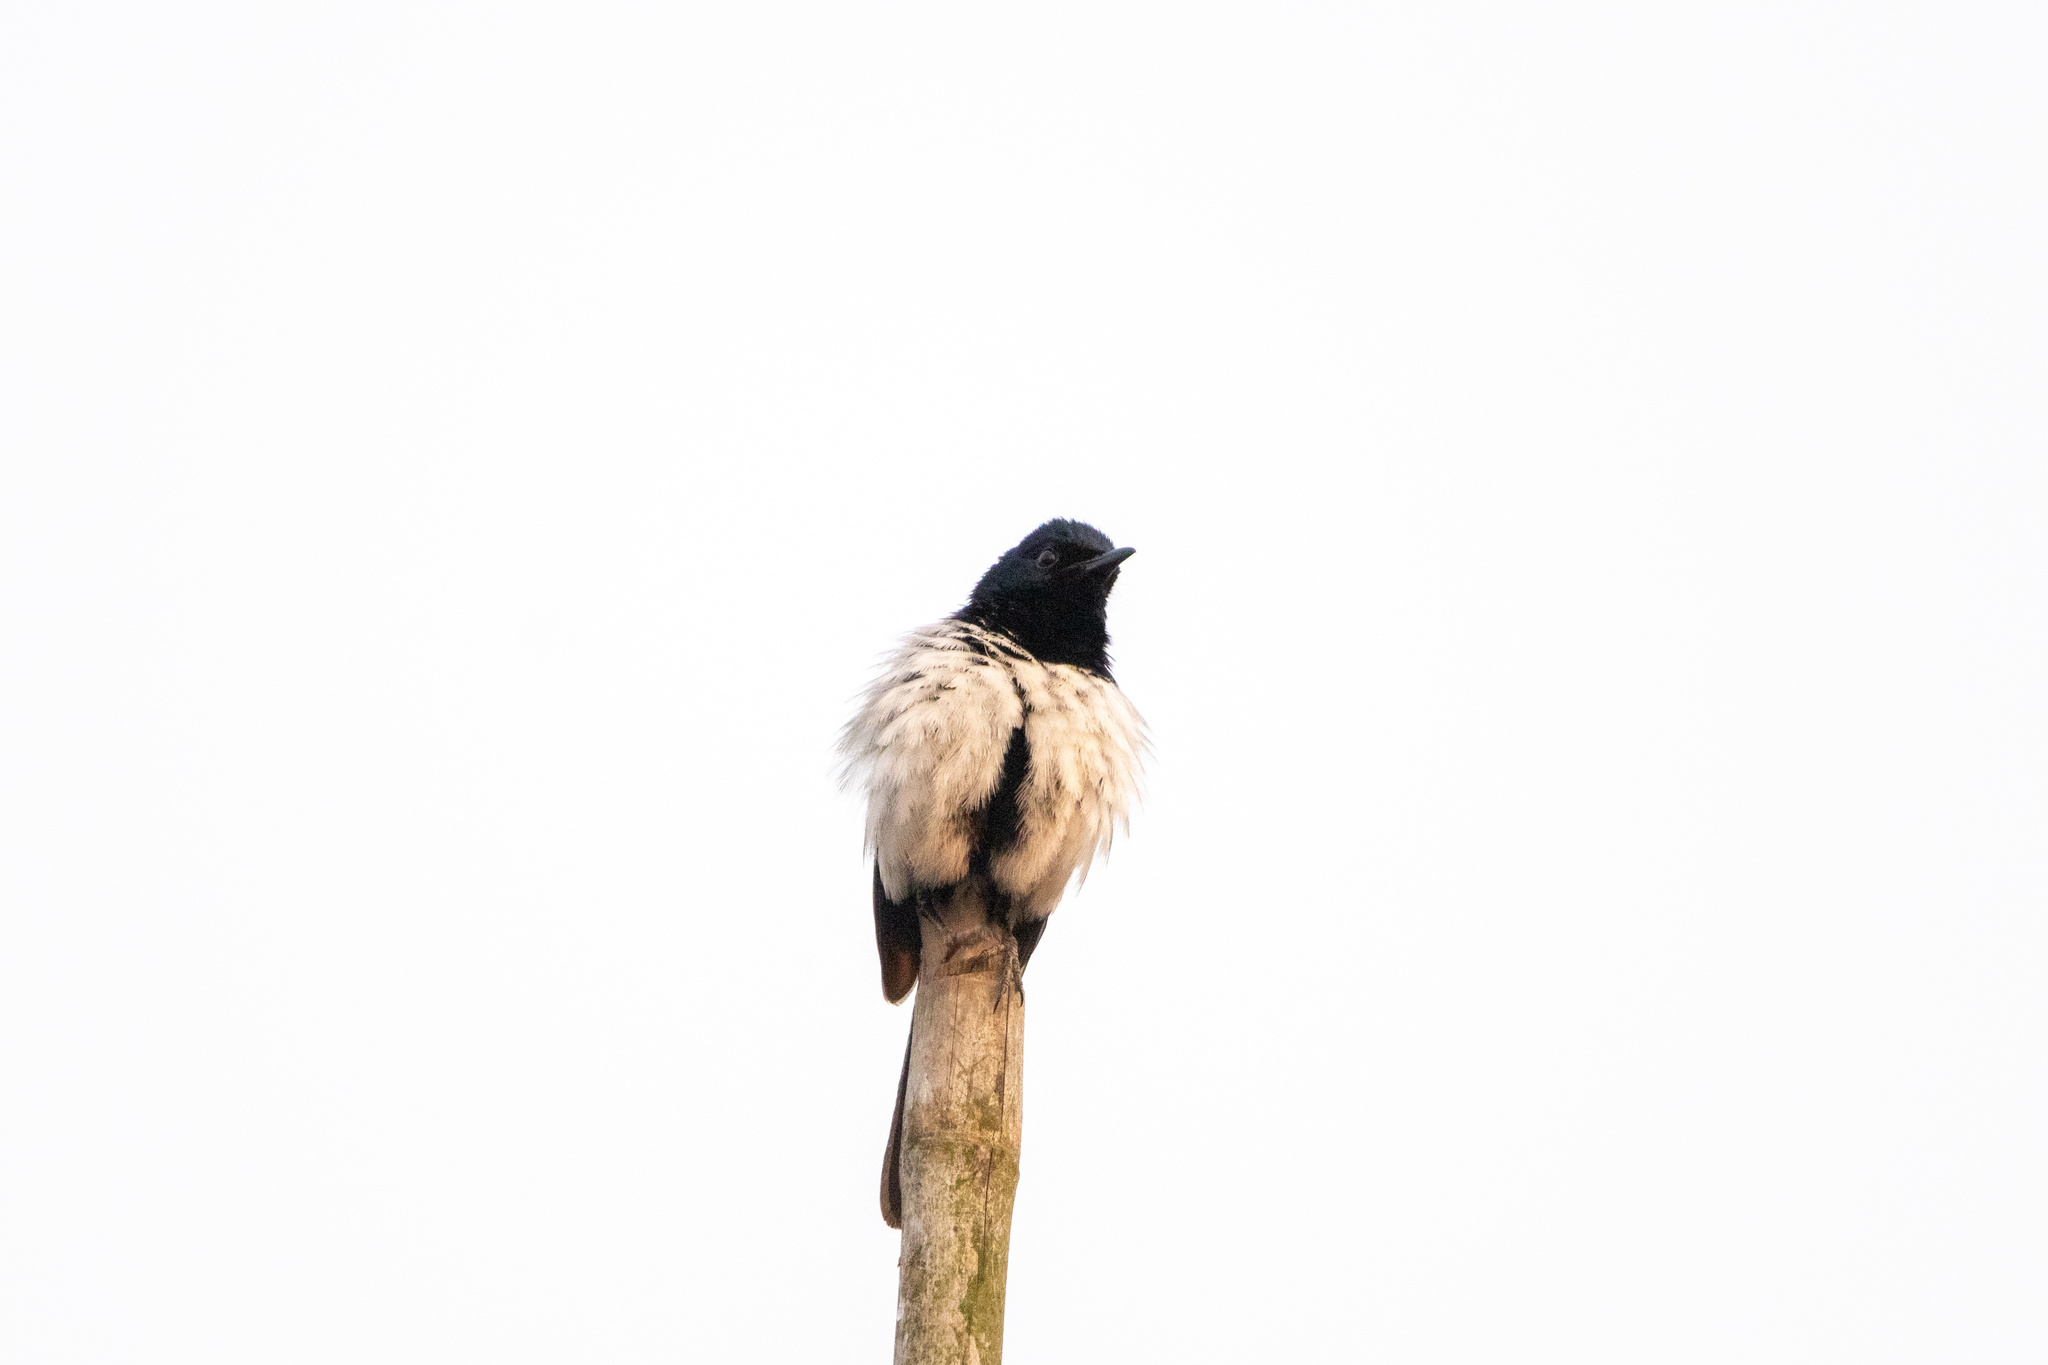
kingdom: Animalia
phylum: Chordata
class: Aves
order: Passeriformes
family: Muscicapidae
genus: Copsychus
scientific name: Copsychus saularis
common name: Oriental magpie-robin
